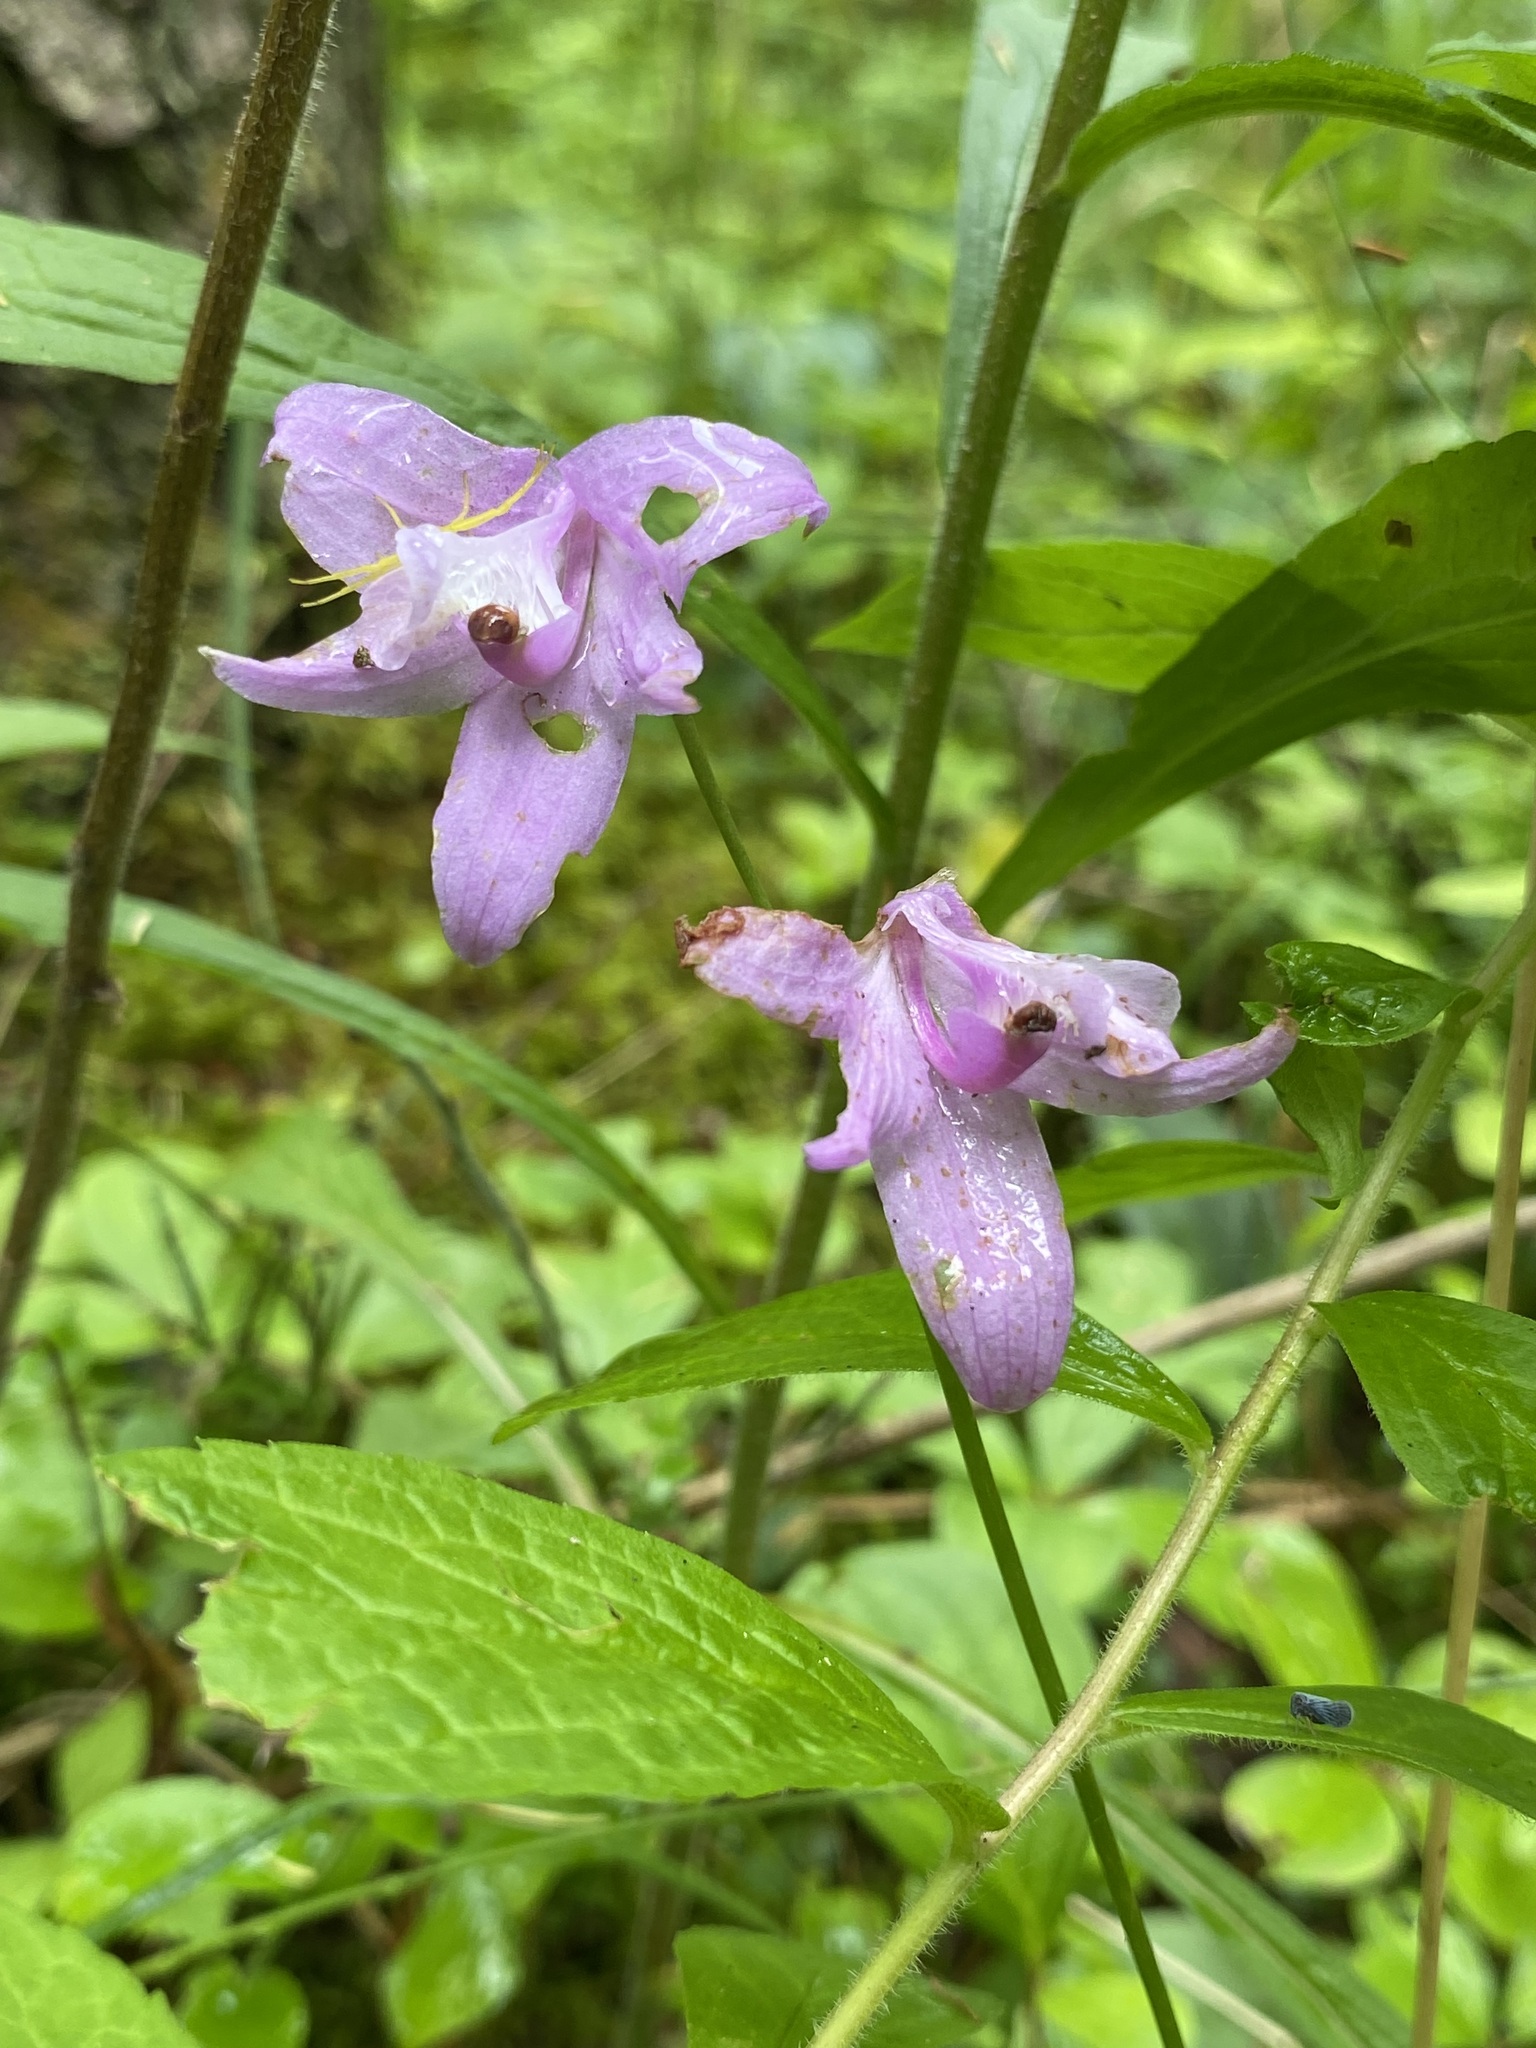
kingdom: Plantae
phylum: Tracheophyta
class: Liliopsida
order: Asparagales
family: Orchidaceae
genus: Calopogon
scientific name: Calopogon tuberosus
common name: Grass-pink
